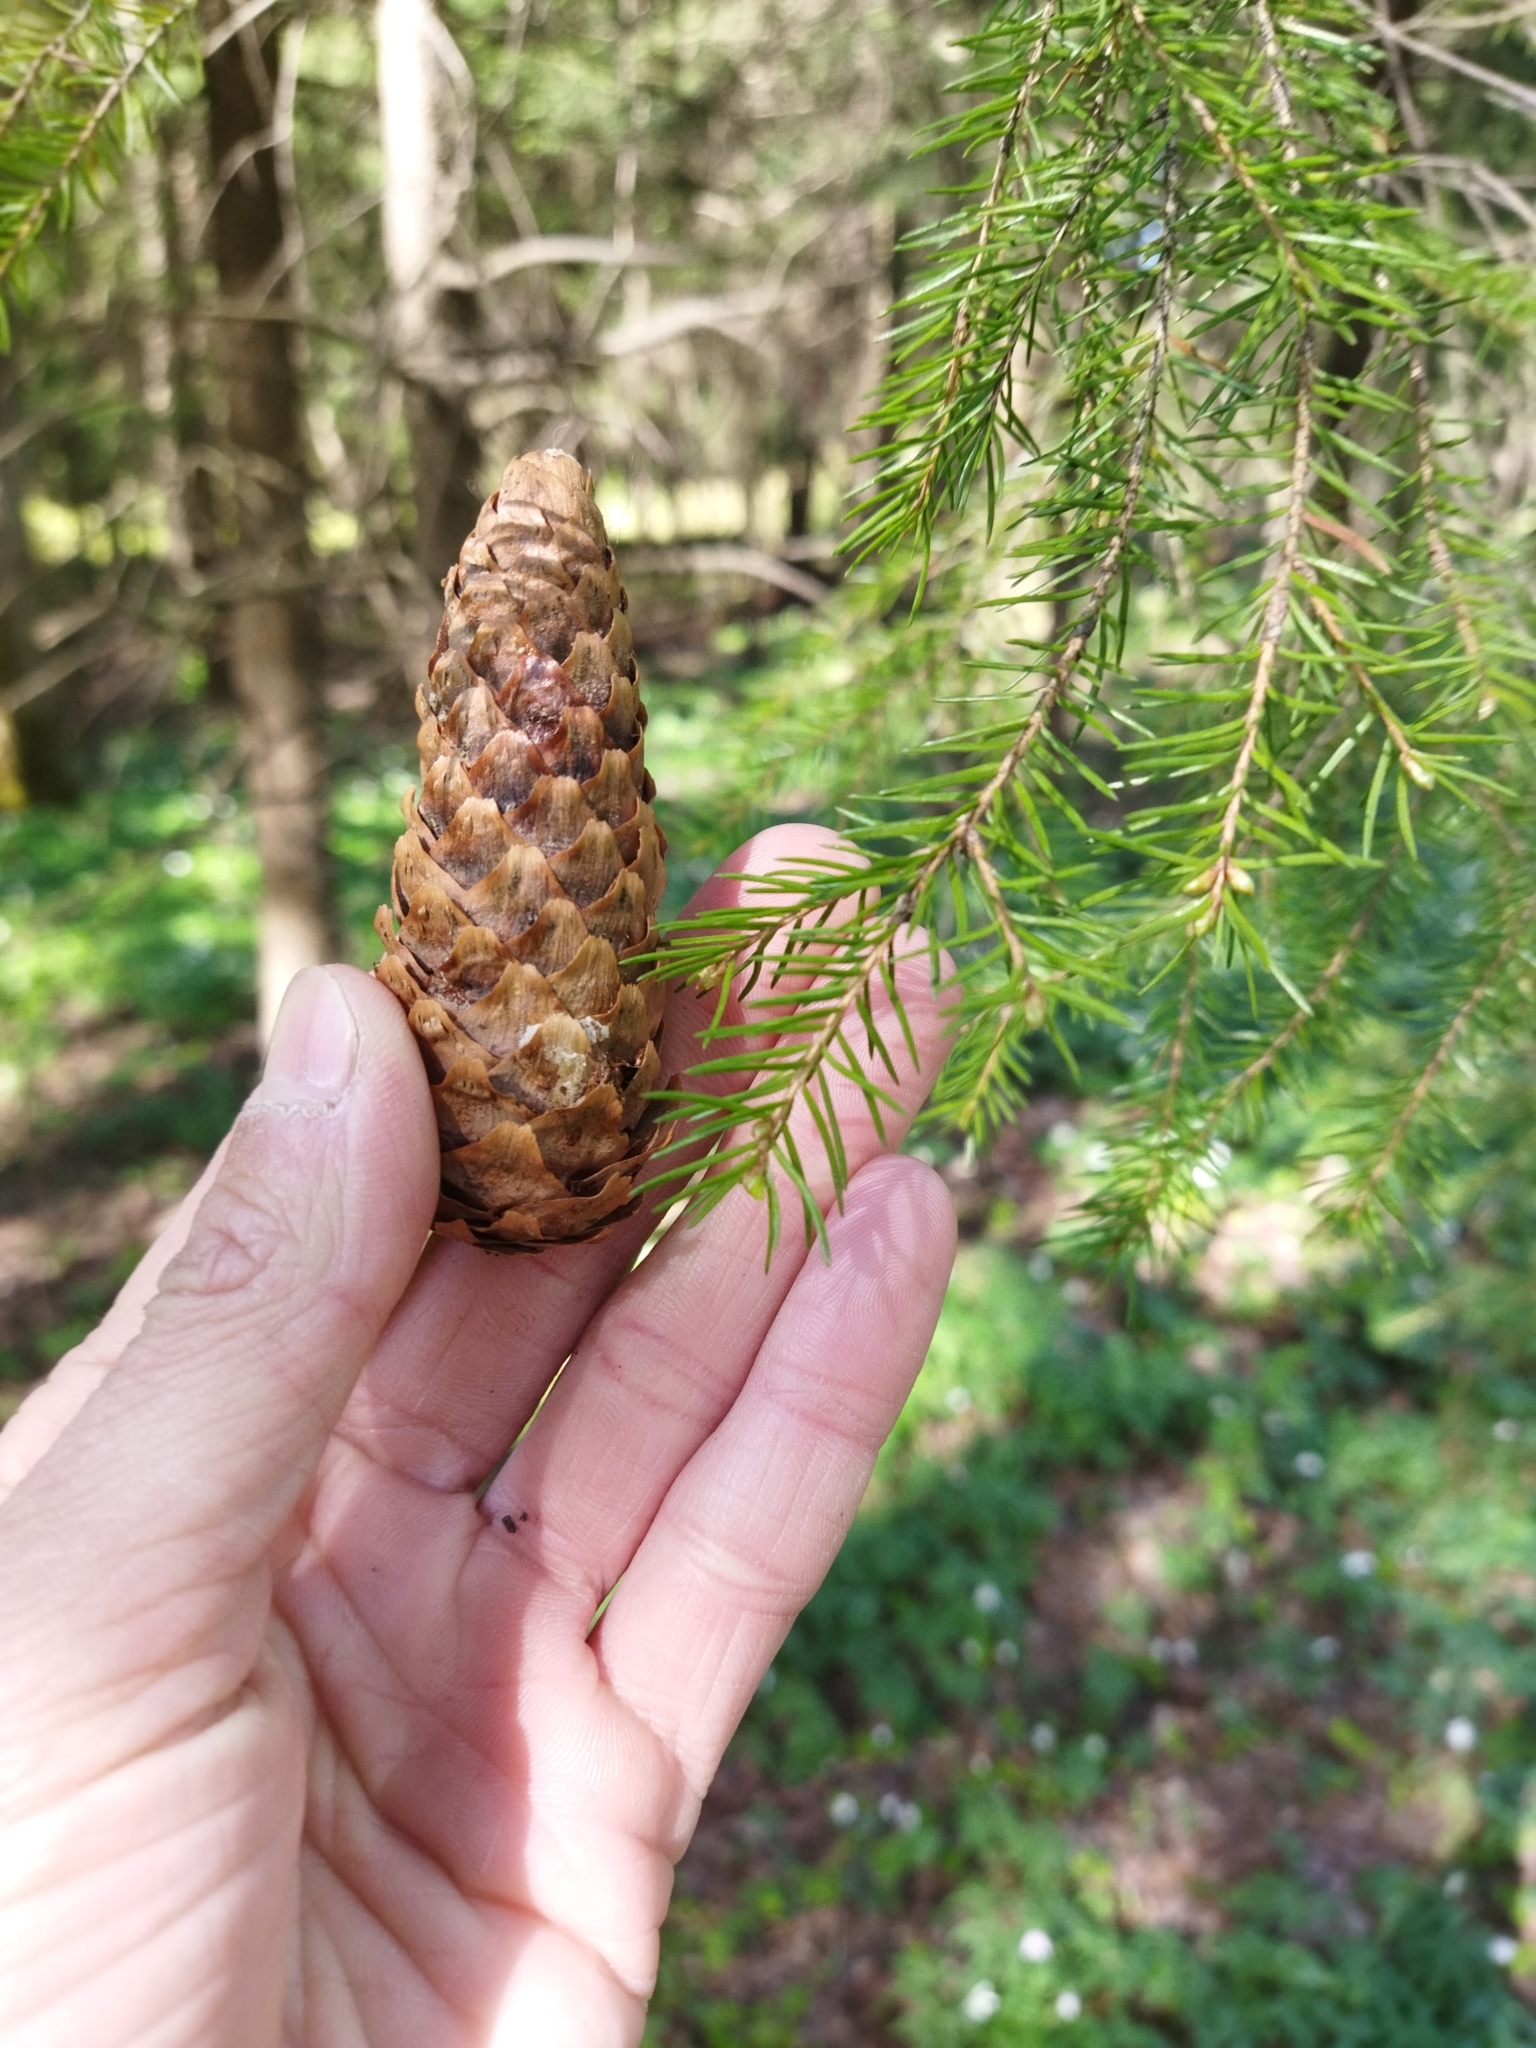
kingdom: Plantae
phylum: Tracheophyta
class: Pinopsida
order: Pinales
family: Pinaceae
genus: Picea
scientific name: Picea abies
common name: Norway spruce
